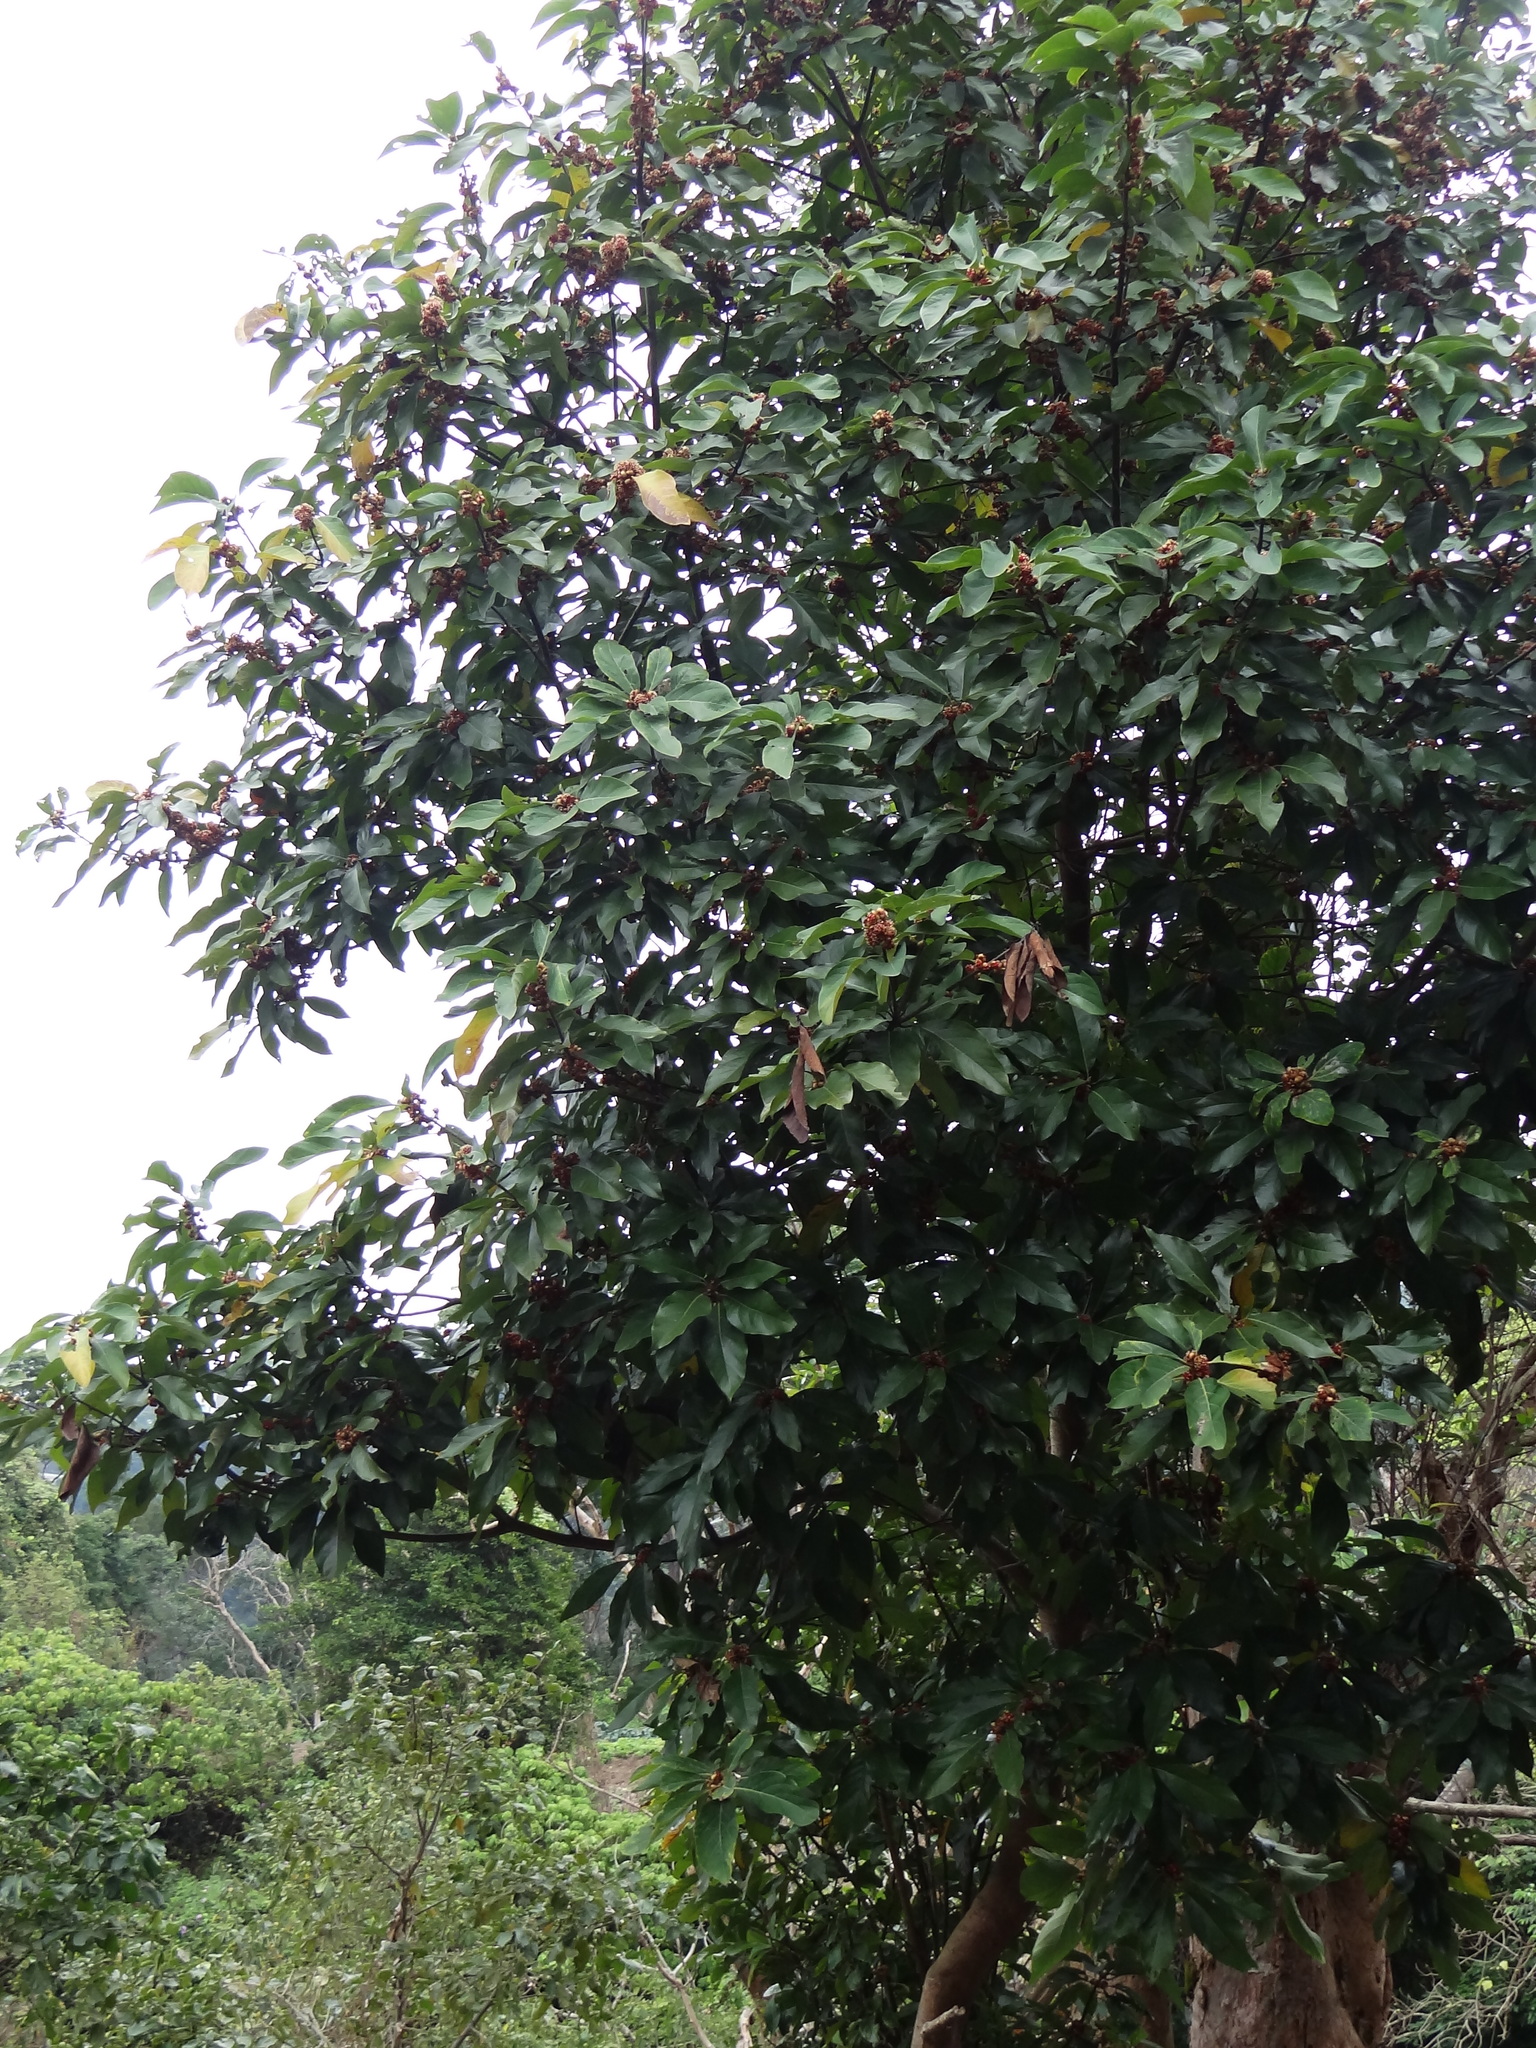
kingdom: Plantae
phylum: Tracheophyta
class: Magnoliopsida
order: Laurales
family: Lauraceae
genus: Lindera
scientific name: Lindera megaphylla
